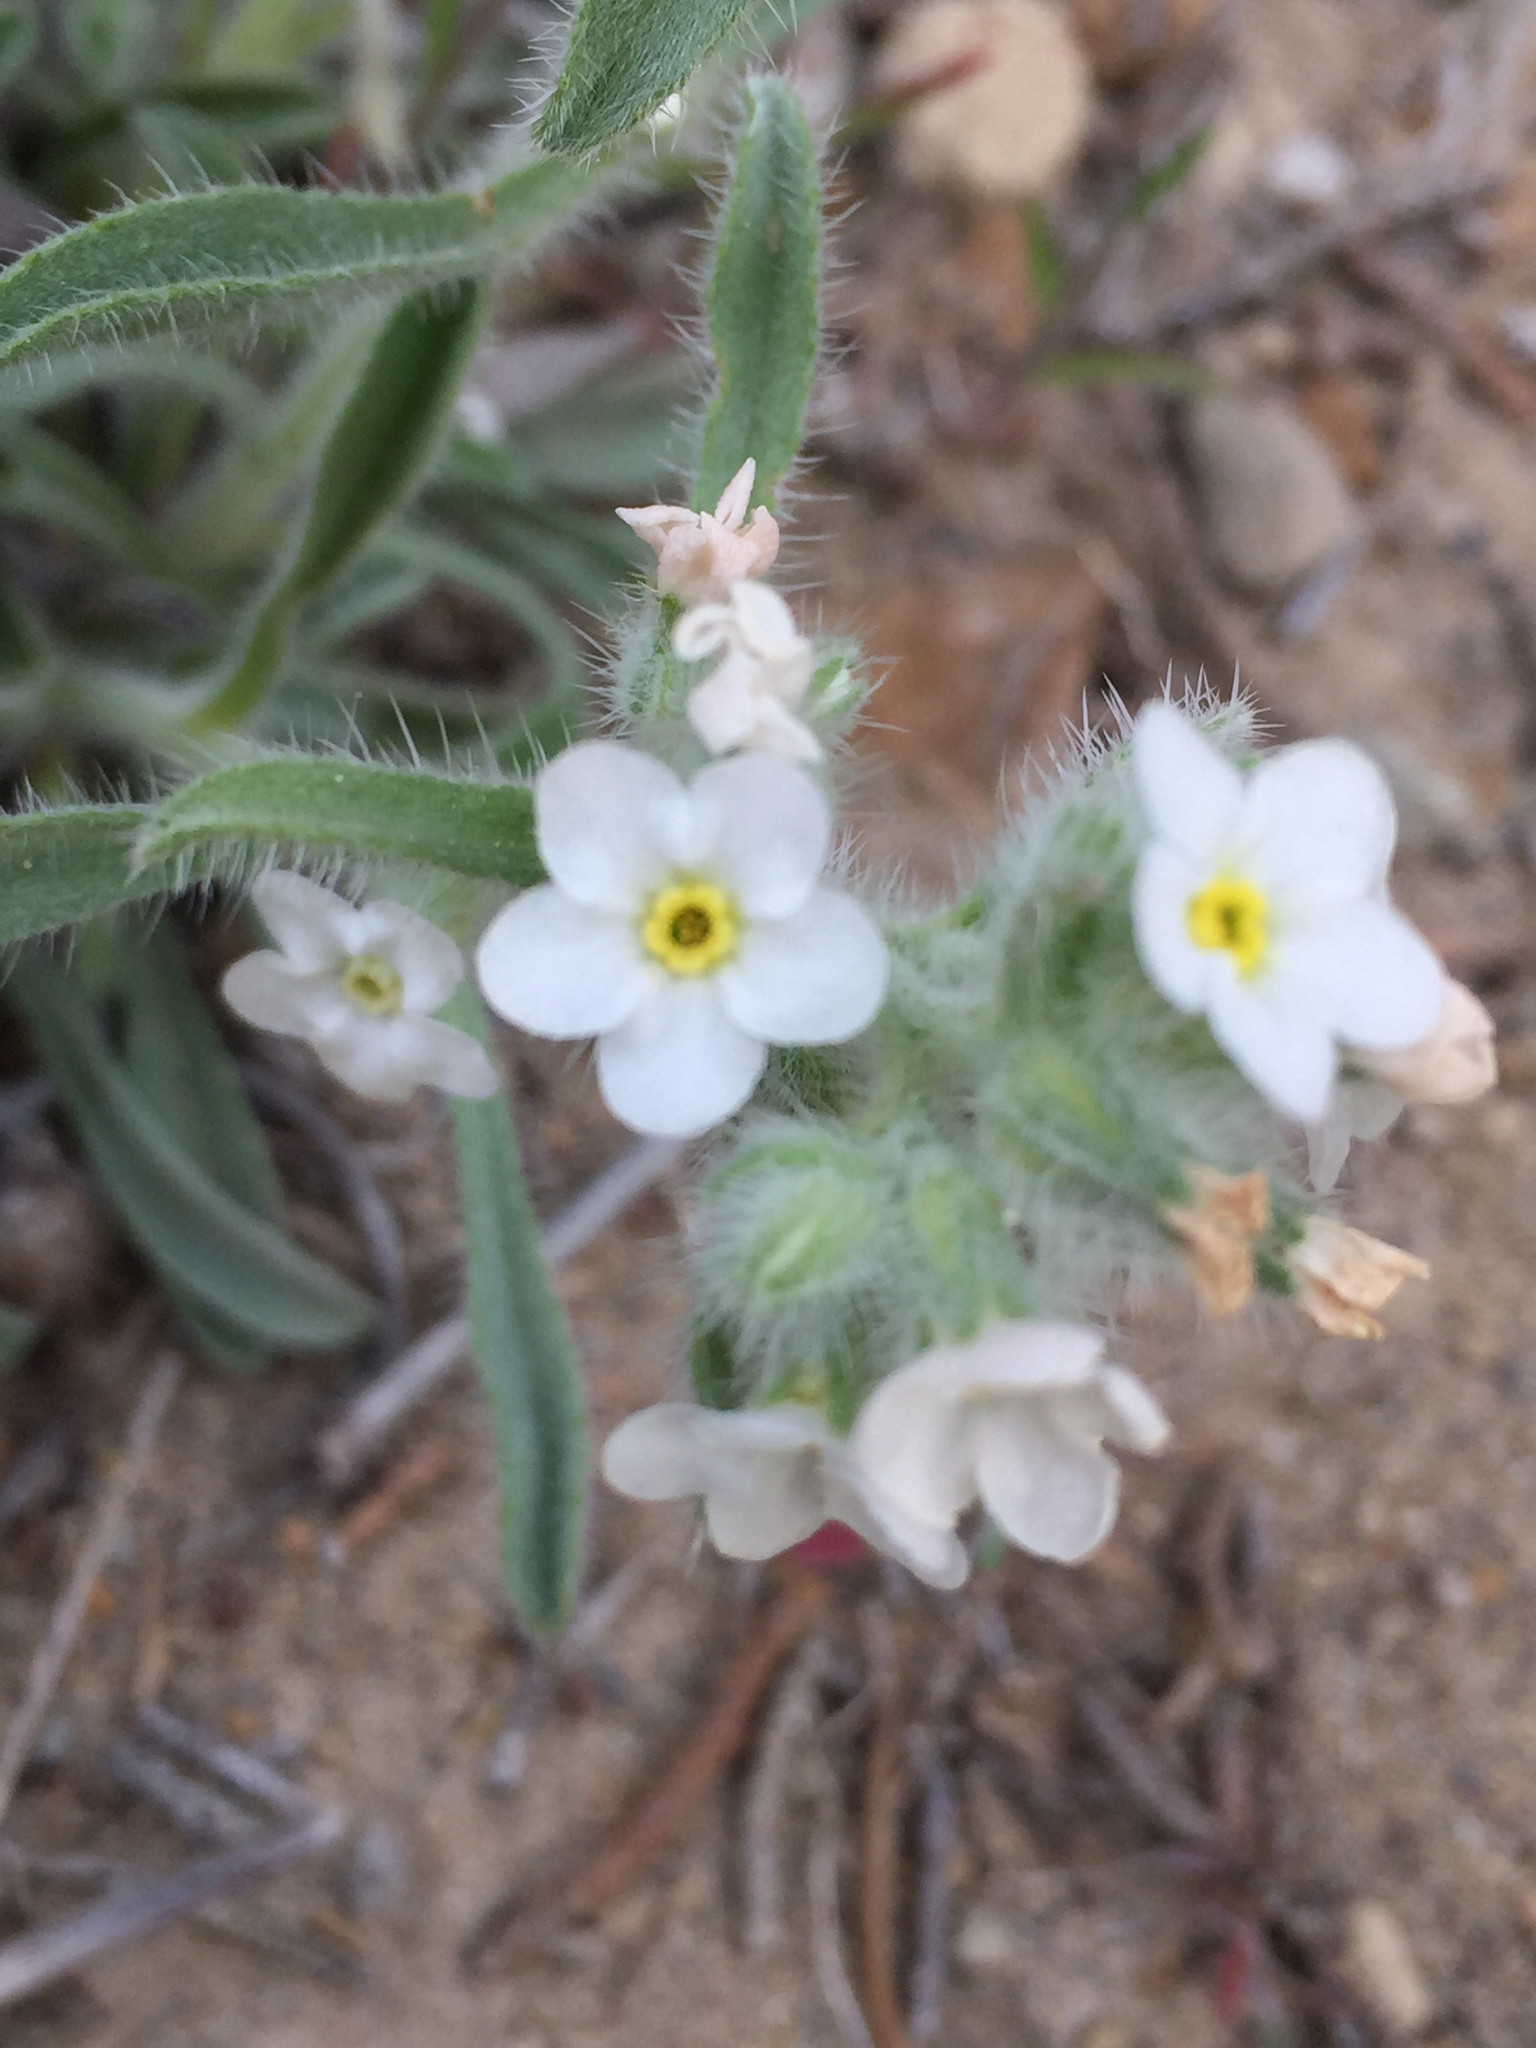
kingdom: Plantae
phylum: Tracheophyta
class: Magnoliopsida
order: Boraginales
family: Boraginaceae
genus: Oreocarya
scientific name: Oreocarya flavoculata
